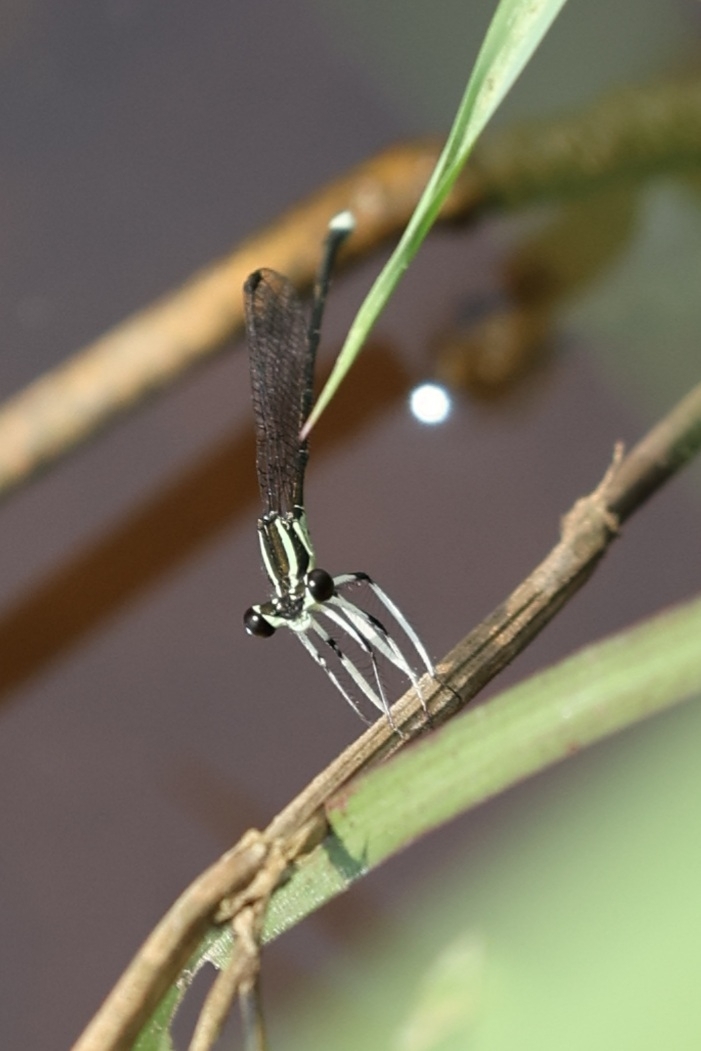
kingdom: Animalia
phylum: Arthropoda
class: Insecta
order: Odonata
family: Platycnemididae
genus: Pseudocopera
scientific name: Pseudocopera ciliata
